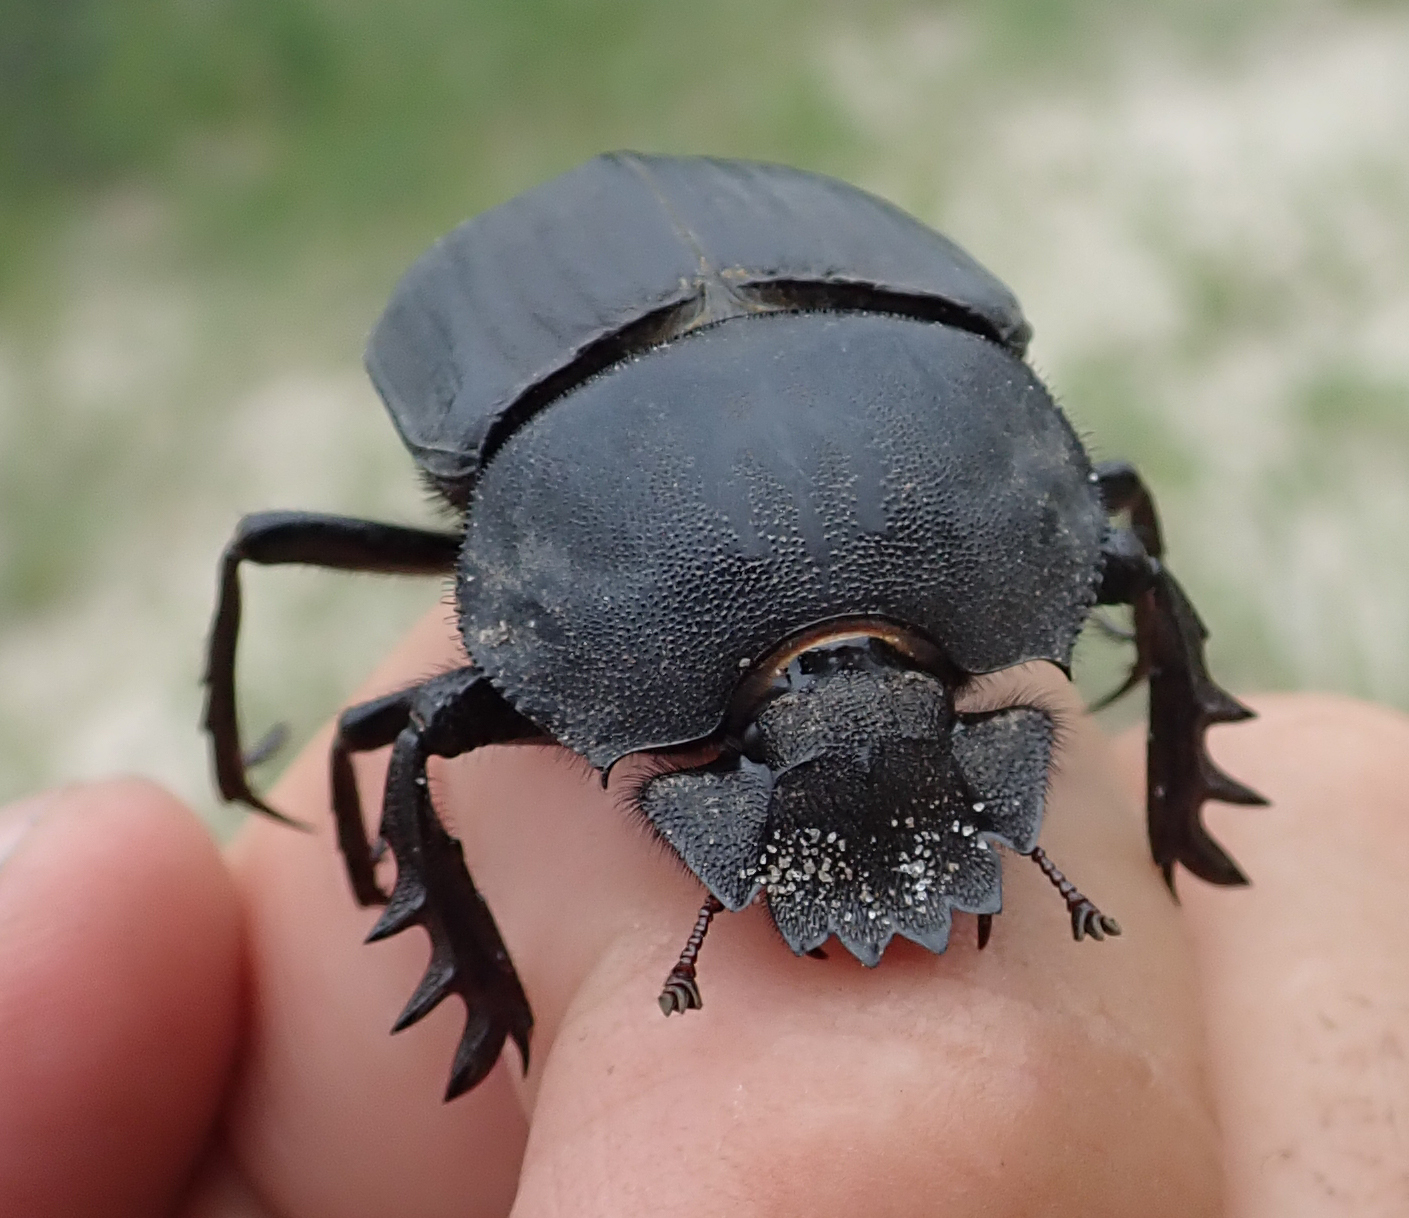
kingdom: Animalia
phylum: Arthropoda
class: Insecta
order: Coleoptera
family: Scarabaeidae
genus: Kheper
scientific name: Kheper lamarcki
